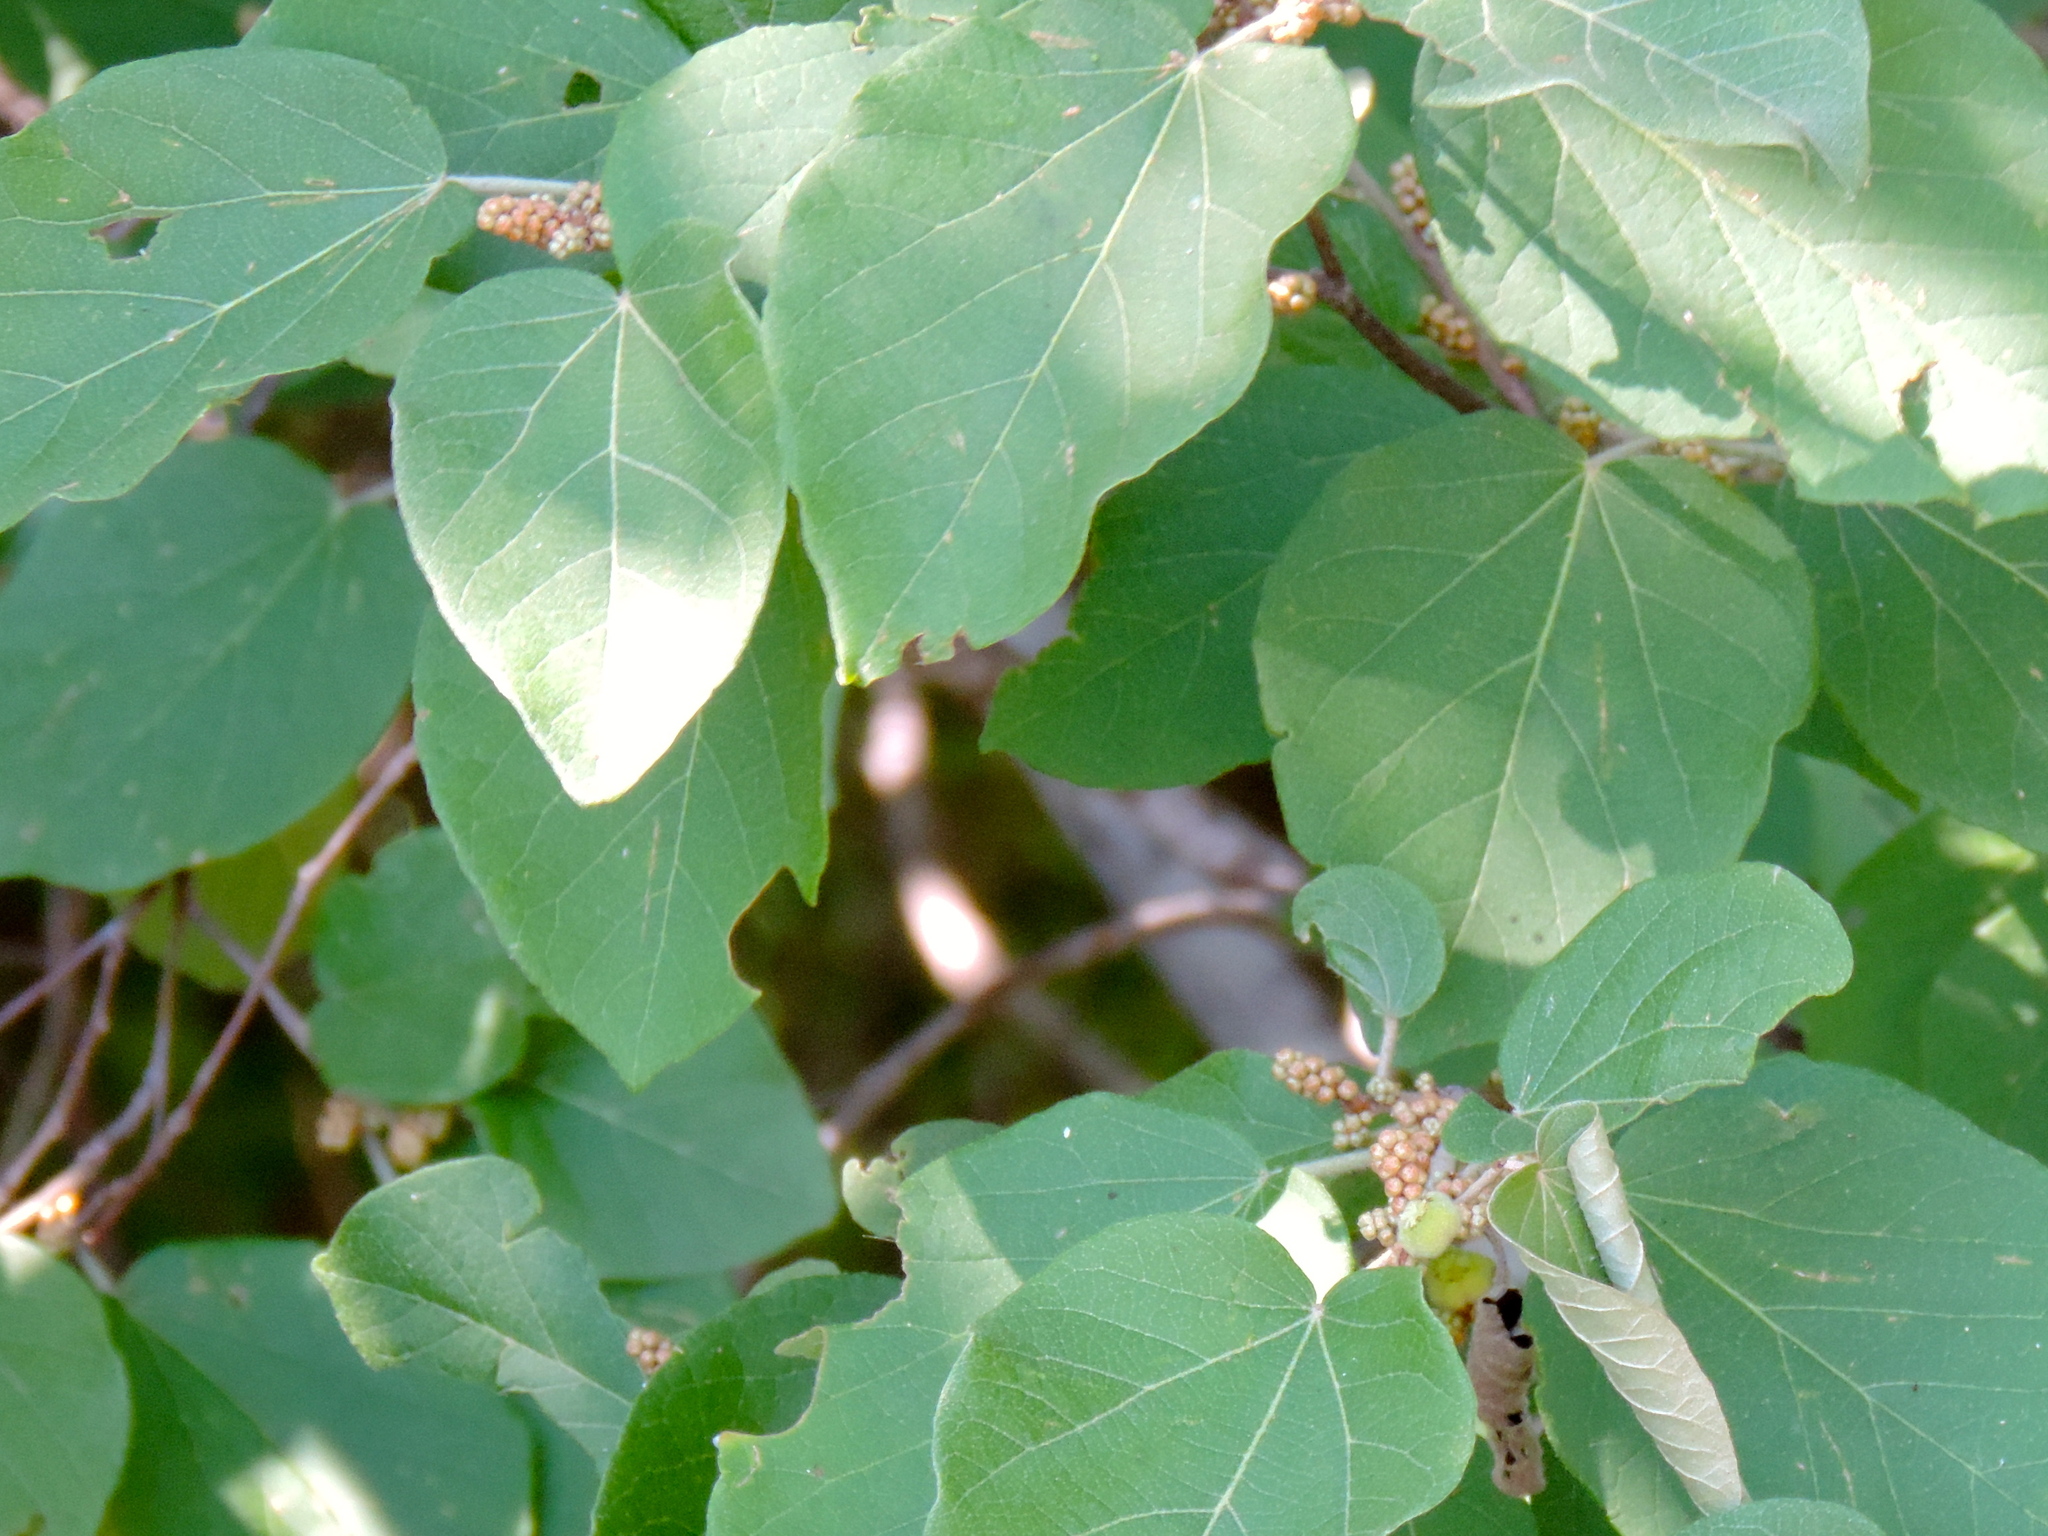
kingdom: Plantae
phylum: Tracheophyta
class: Magnoliopsida
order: Malpighiales
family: Euphorbiaceae
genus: Croton
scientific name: Croton lindquistii
